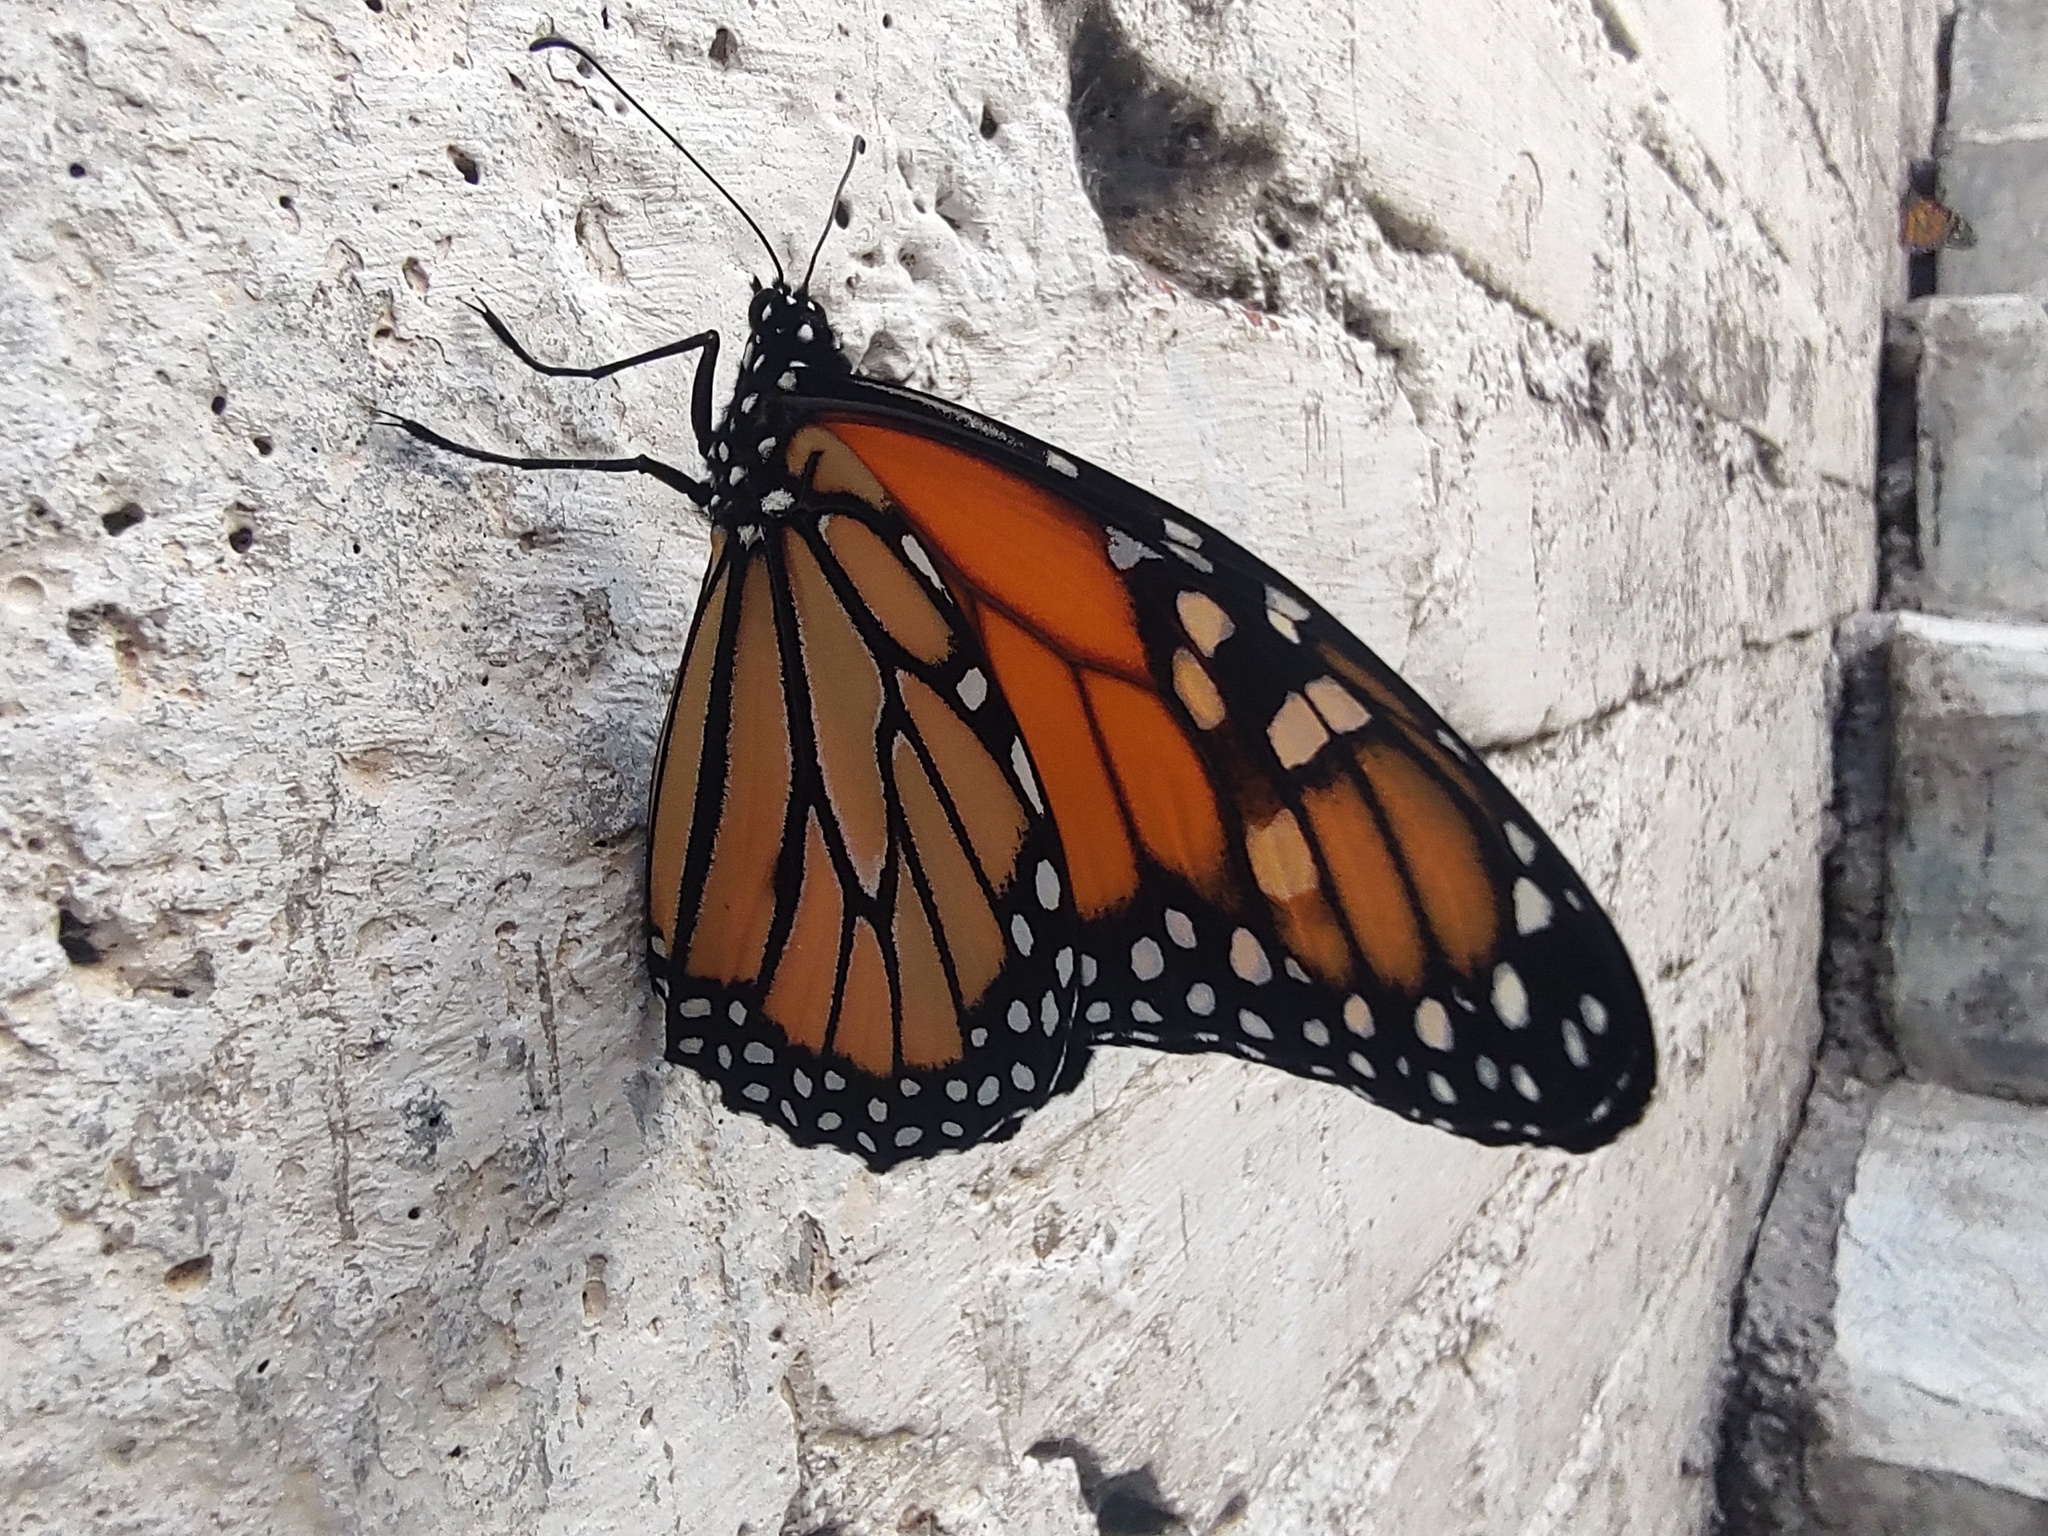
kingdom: Animalia
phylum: Arthropoda
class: Insecta
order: Lepidoptera
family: Nymphalidae
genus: Danaus
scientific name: Danaus plexippus
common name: Monarch
